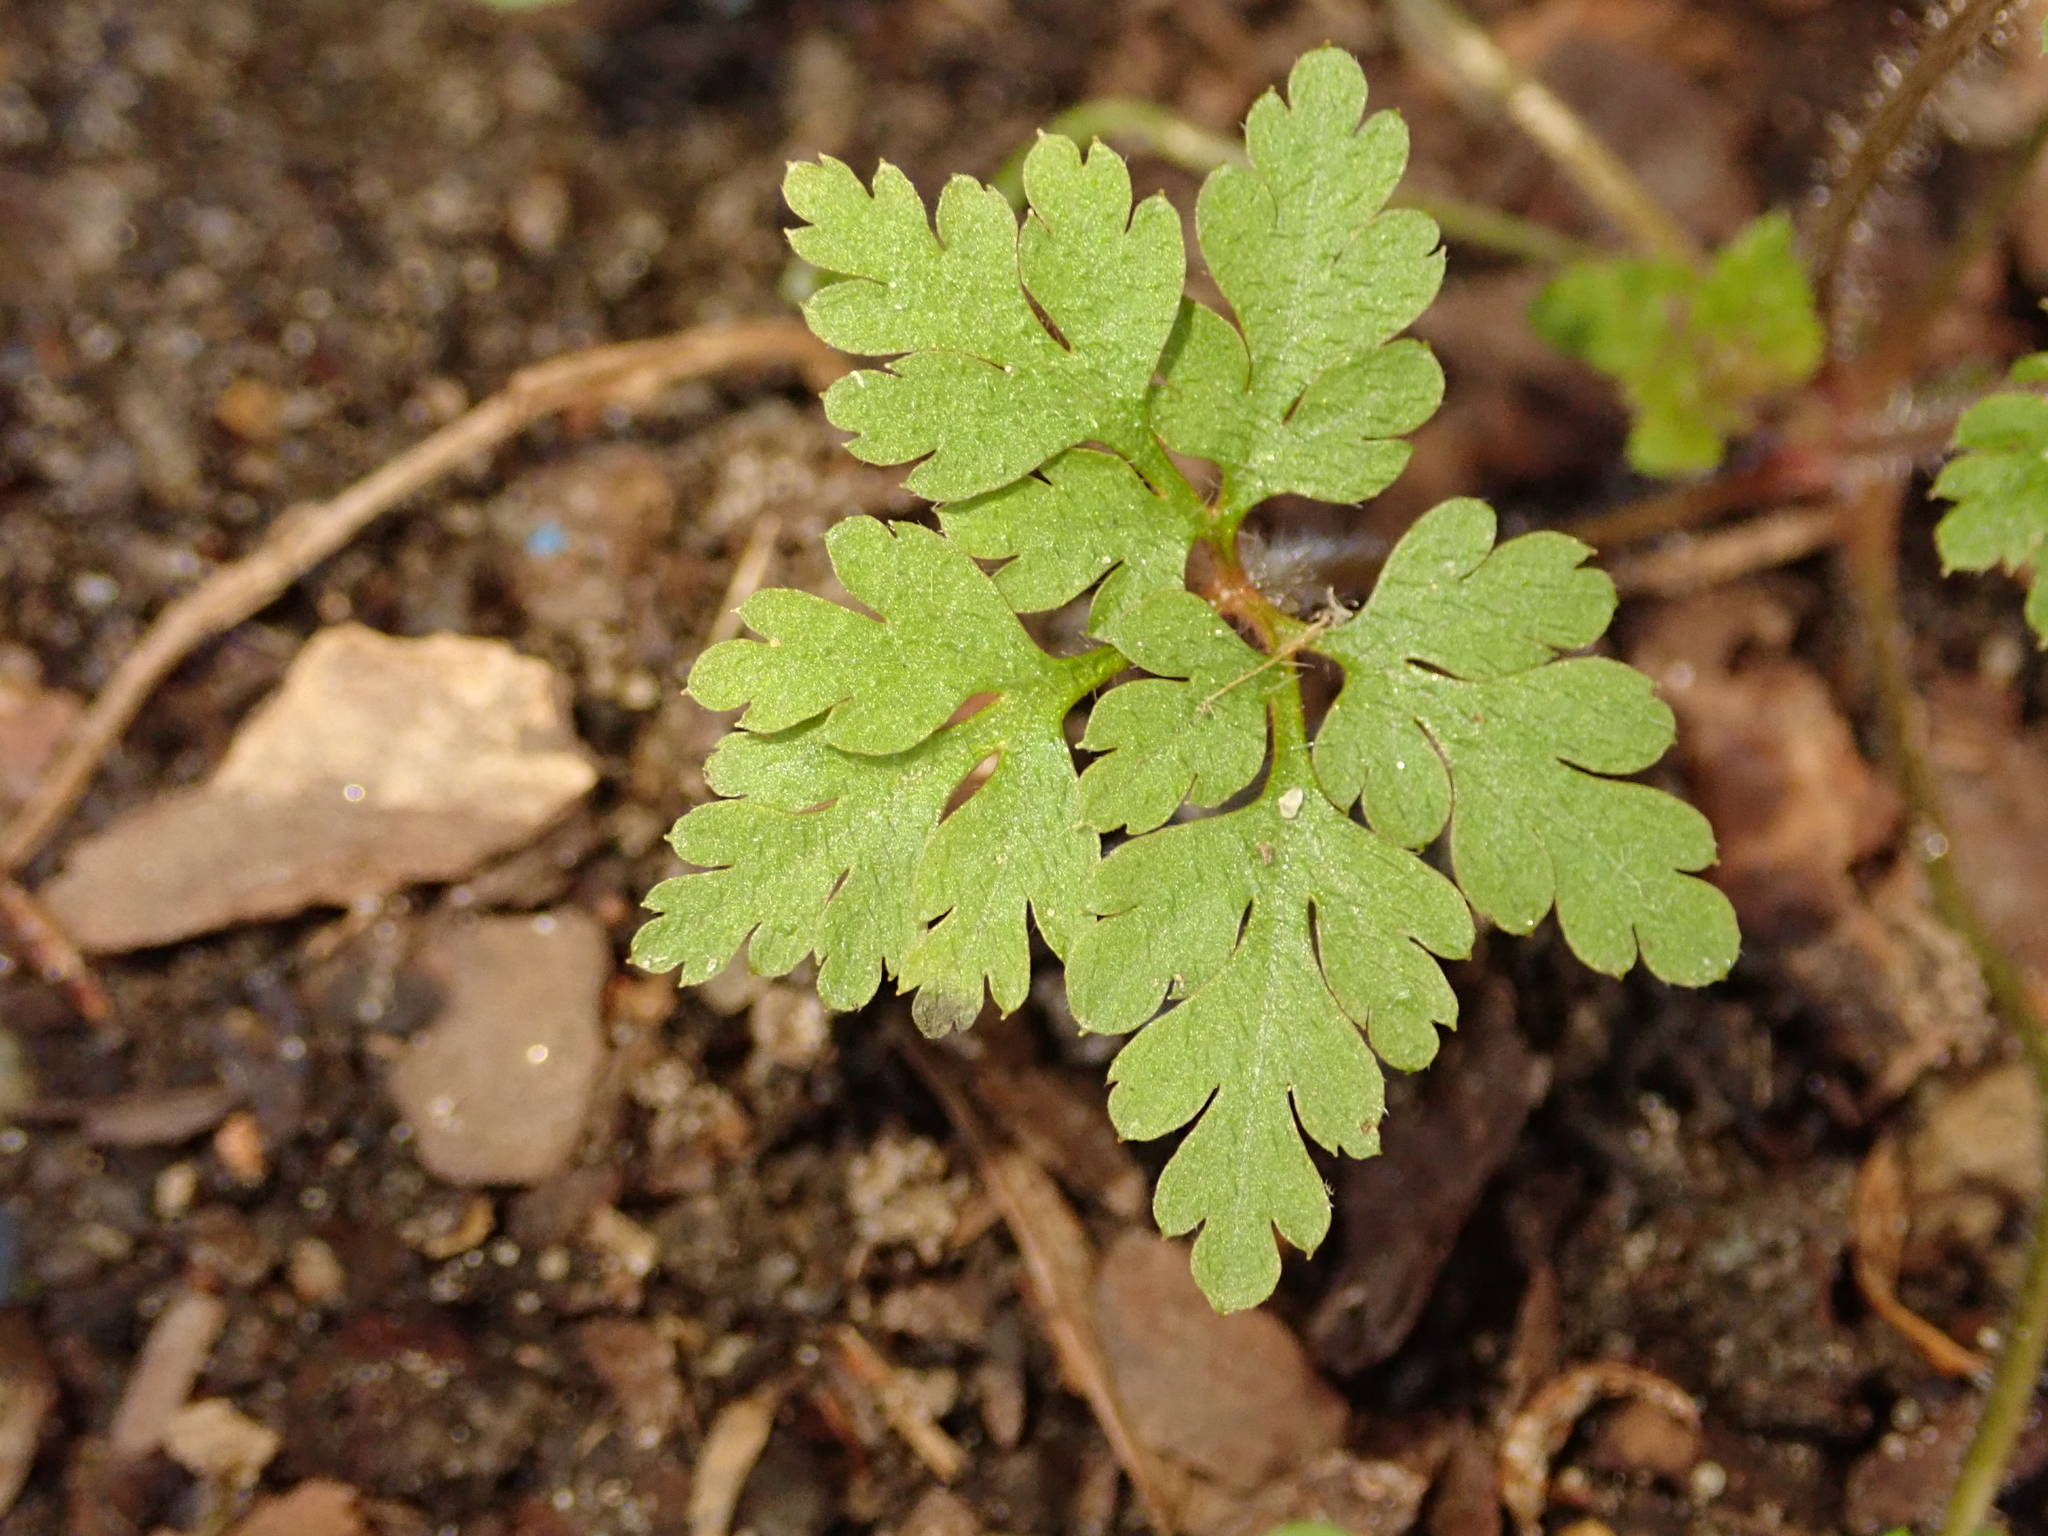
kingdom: Plantae
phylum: Tracheophyta
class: Magnoliopsida
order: Geraniales
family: Geraniaceae
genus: Geranium
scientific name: Geranium robertianum
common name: Herb-robert
